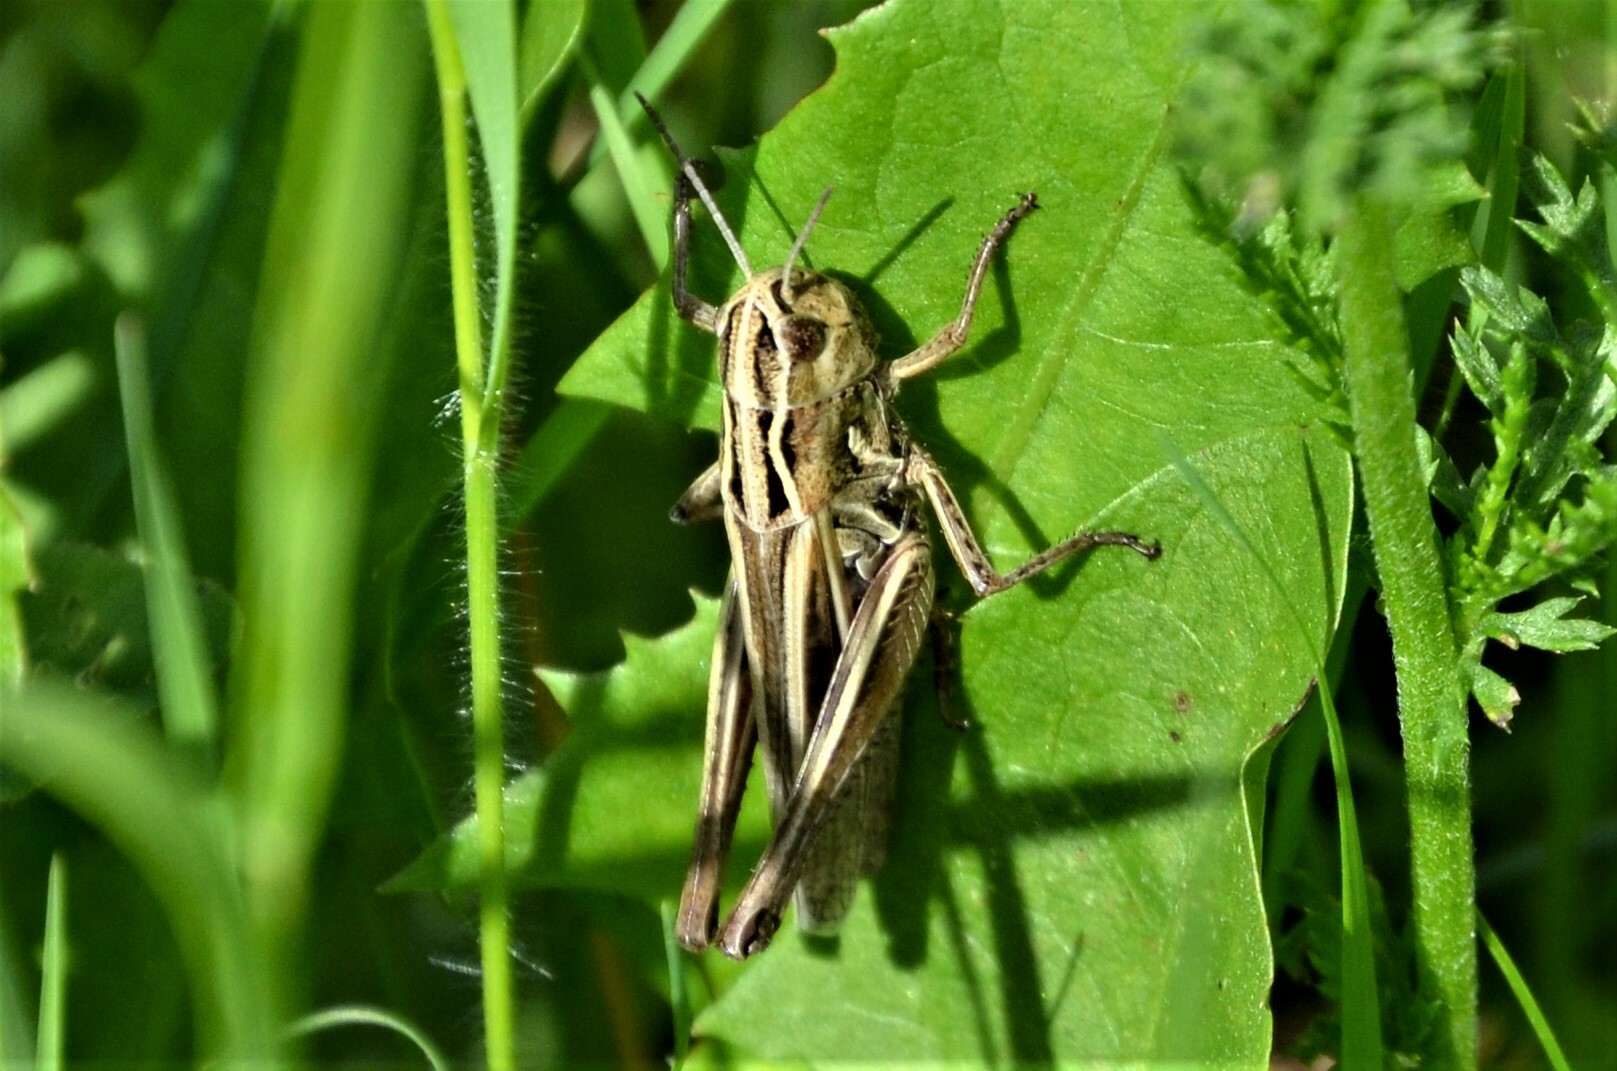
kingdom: Animalia
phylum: Arthropoda
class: Insecta
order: Orthoptera
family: Acrididae
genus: Stenobothrus
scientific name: Stenobothrus lineatus
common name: Stripe-winged grasshopper
